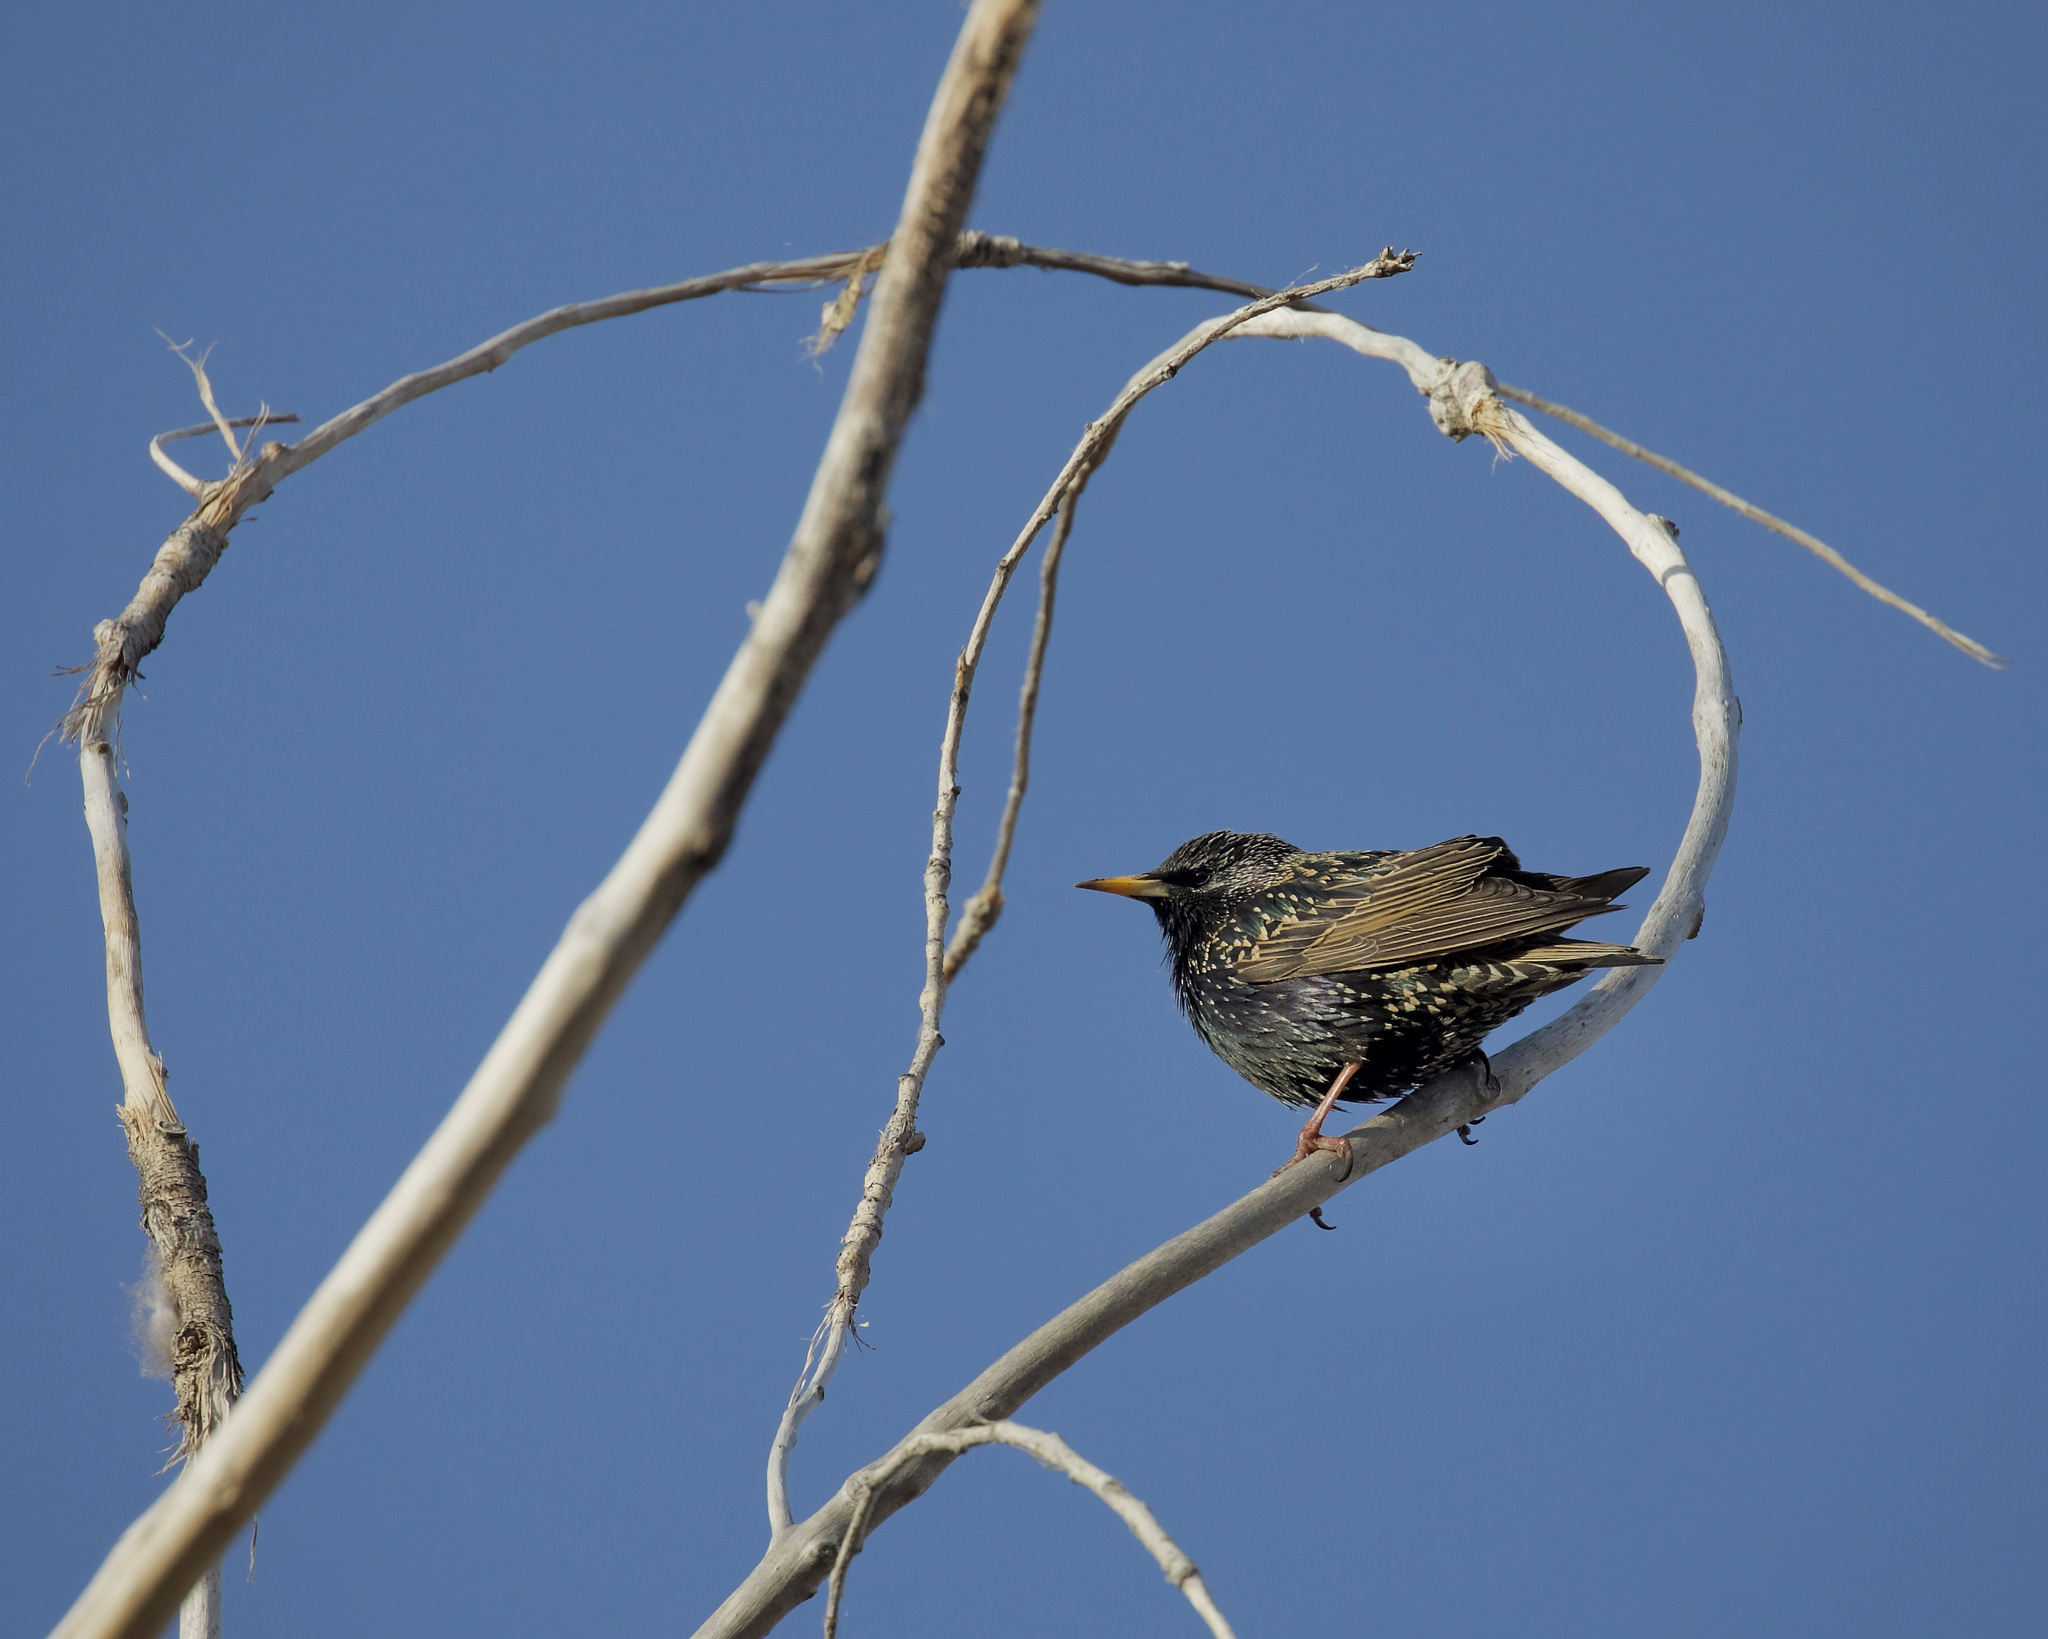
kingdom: Animalia
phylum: Chordata
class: Aves
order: Passeriformes
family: Sturnidae
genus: Sturnus
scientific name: Sturnus vulgaris
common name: Common starling
